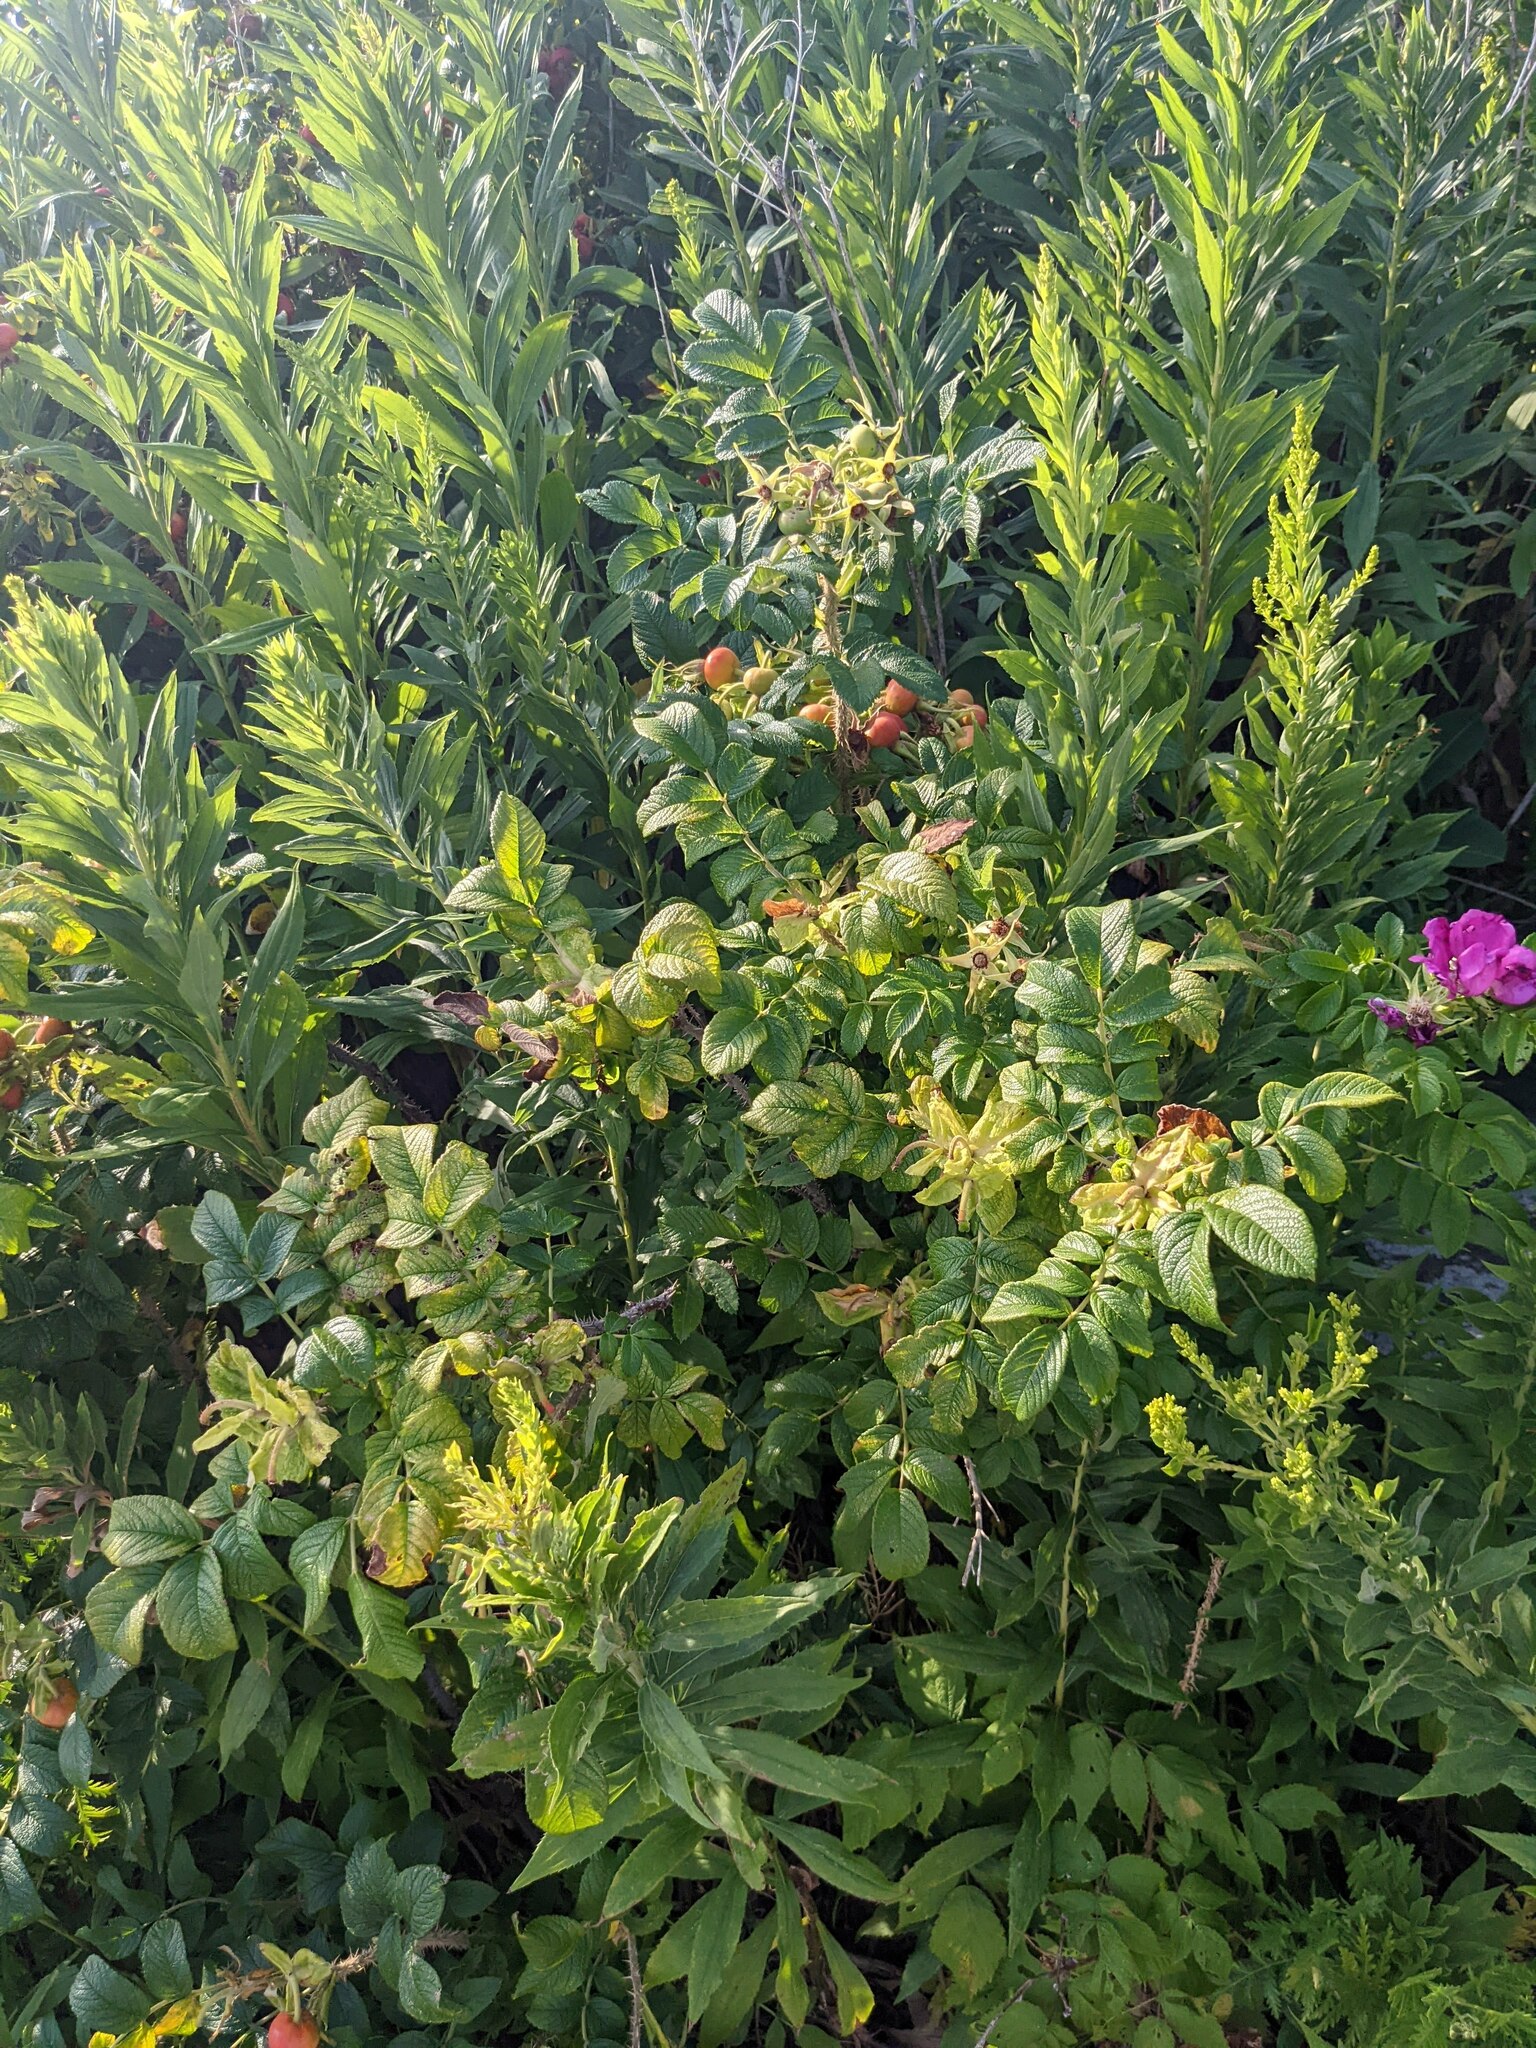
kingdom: Plantae
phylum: Tracheophyta
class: Magnoliopsida
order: Rosales
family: Rosaceae
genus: Rosa
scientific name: Rosa rugosa
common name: Japanese rose
